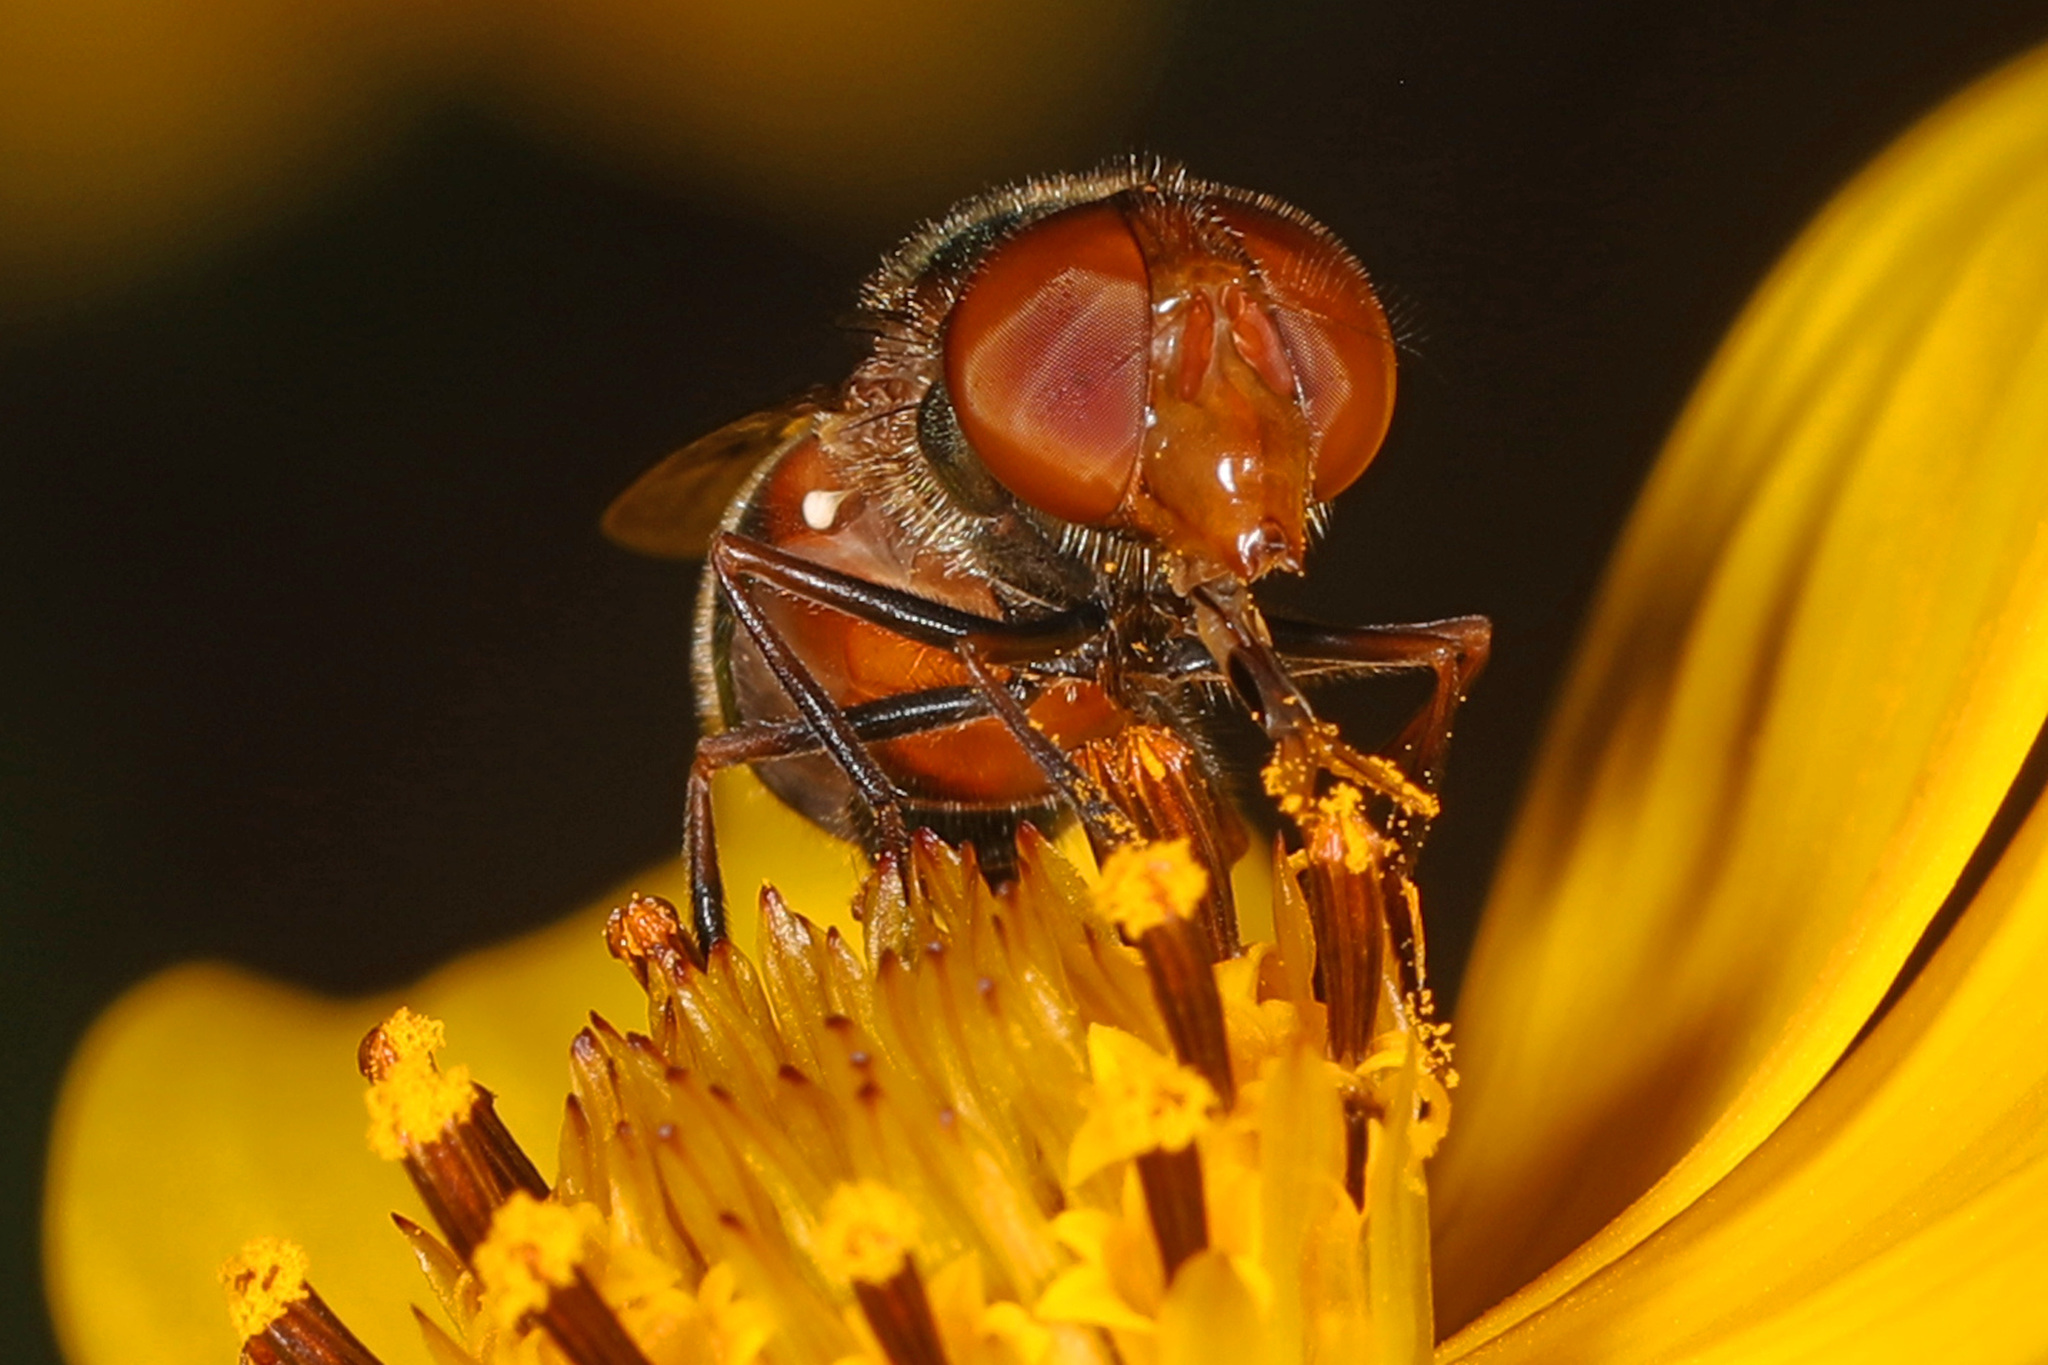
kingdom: Animalia
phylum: Arthropoda
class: Insecta
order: Diptera
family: Syrphidae
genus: Copestylum
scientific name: Copestylum vesicularium
